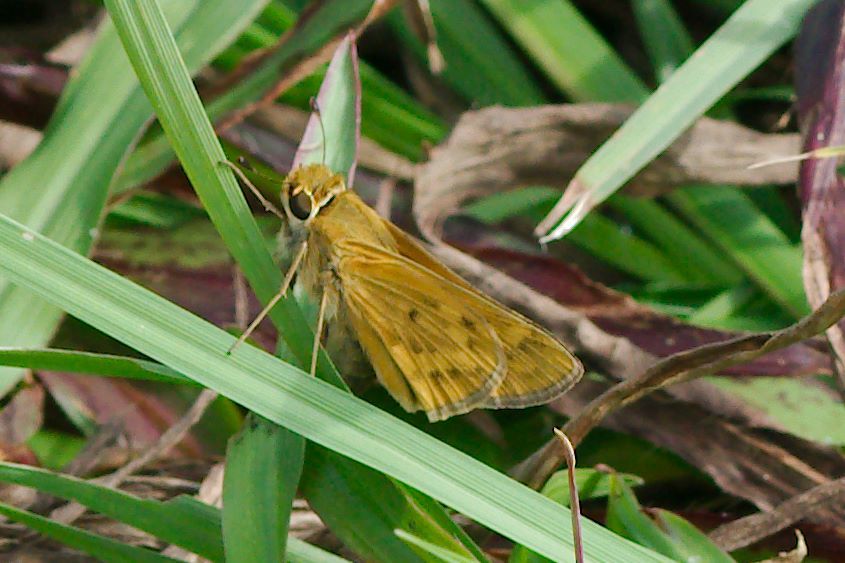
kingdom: Animalia
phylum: Arthropoda
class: Insecta
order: Lepidoptera
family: Hesperiidae
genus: Hylephila
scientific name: Hylephila phyleus
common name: Fiery skipper
